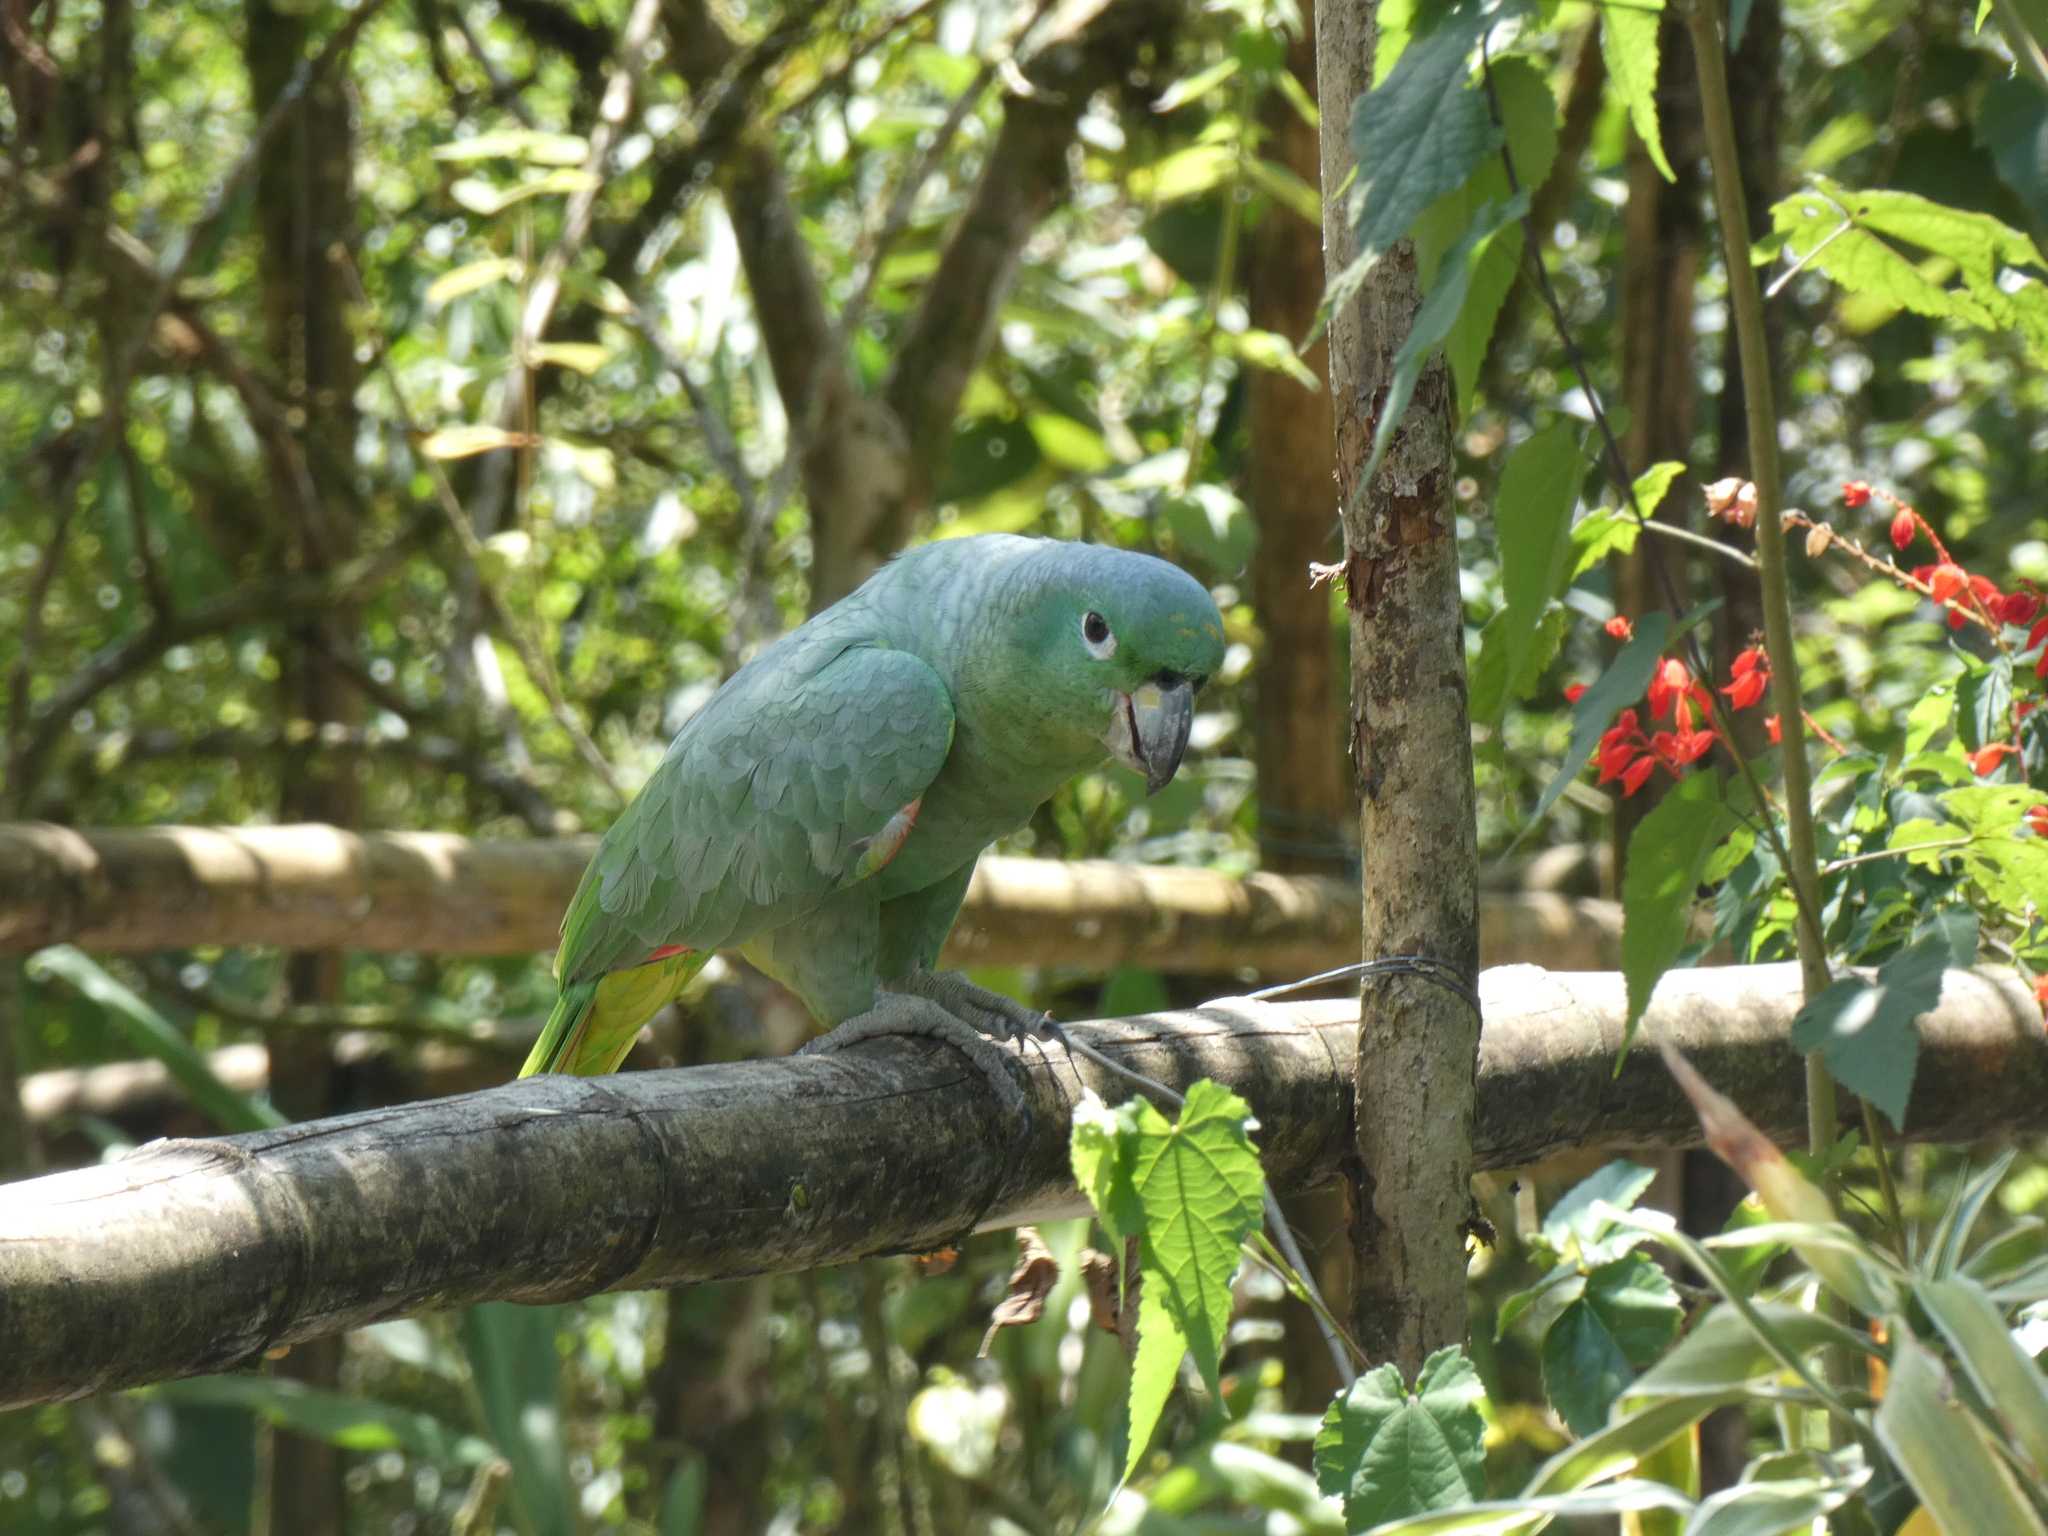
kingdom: Animalia
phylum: Chordata
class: Aves
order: Psittaciformes
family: Psittacidae
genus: Amazona
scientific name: Amazona farinosa
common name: Mealy parrot
